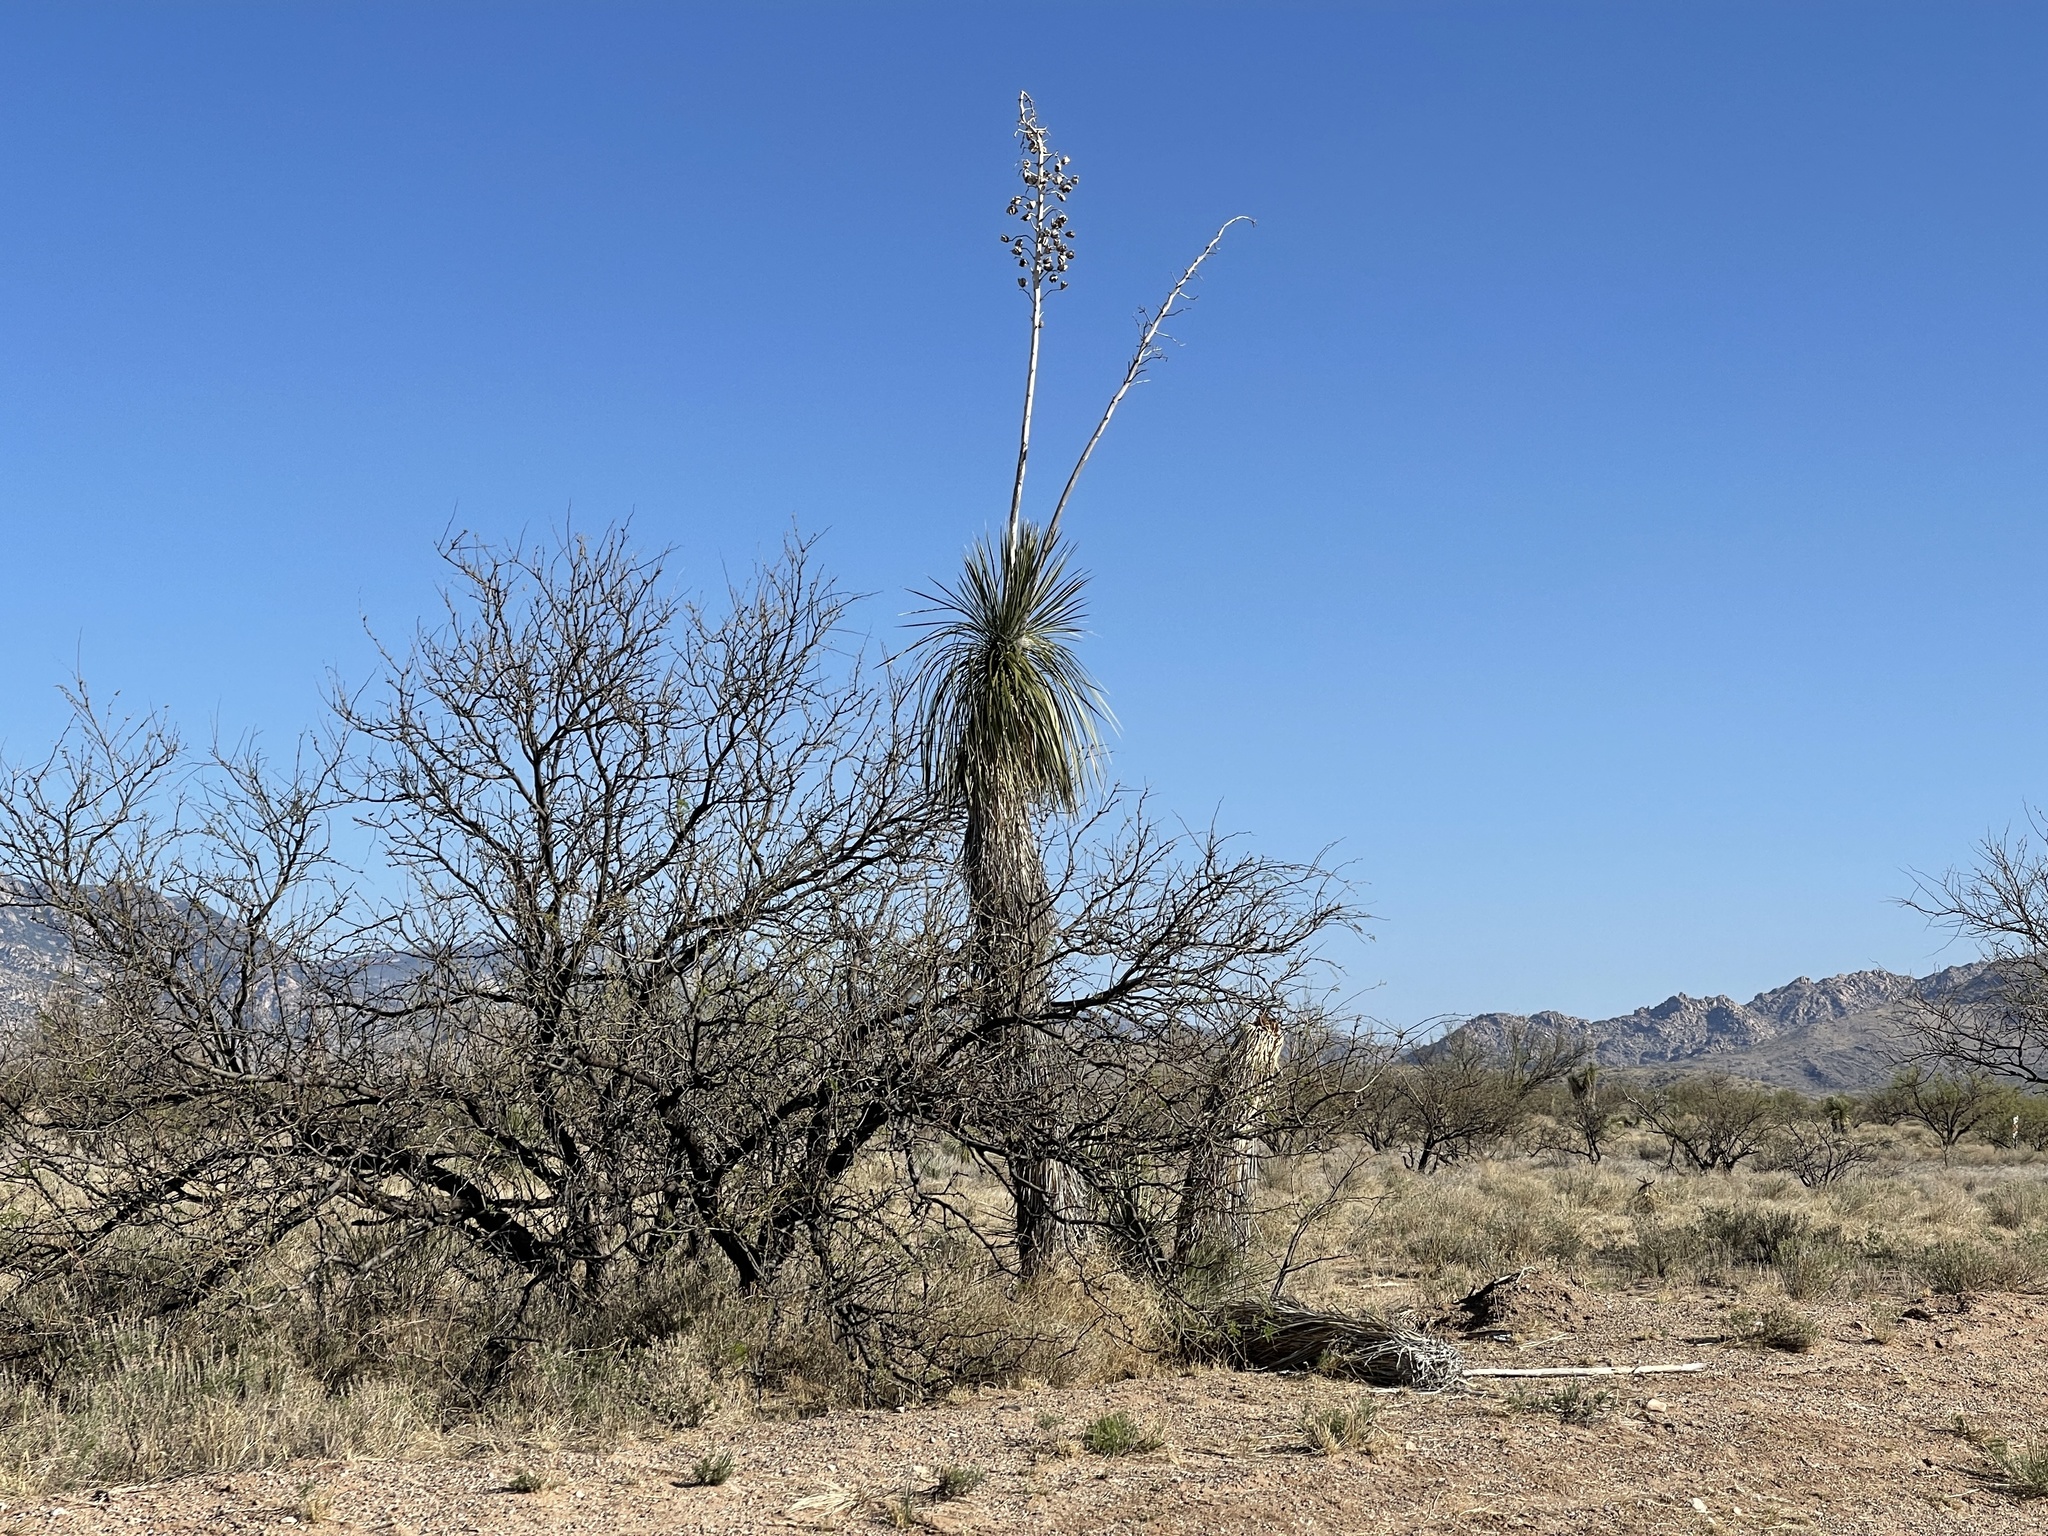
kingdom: Plantae
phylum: Tracheophyta
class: Liliopsida
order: Asparagales
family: Asparagaceae
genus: Yucca
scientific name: Yucca elata
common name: Palmella
